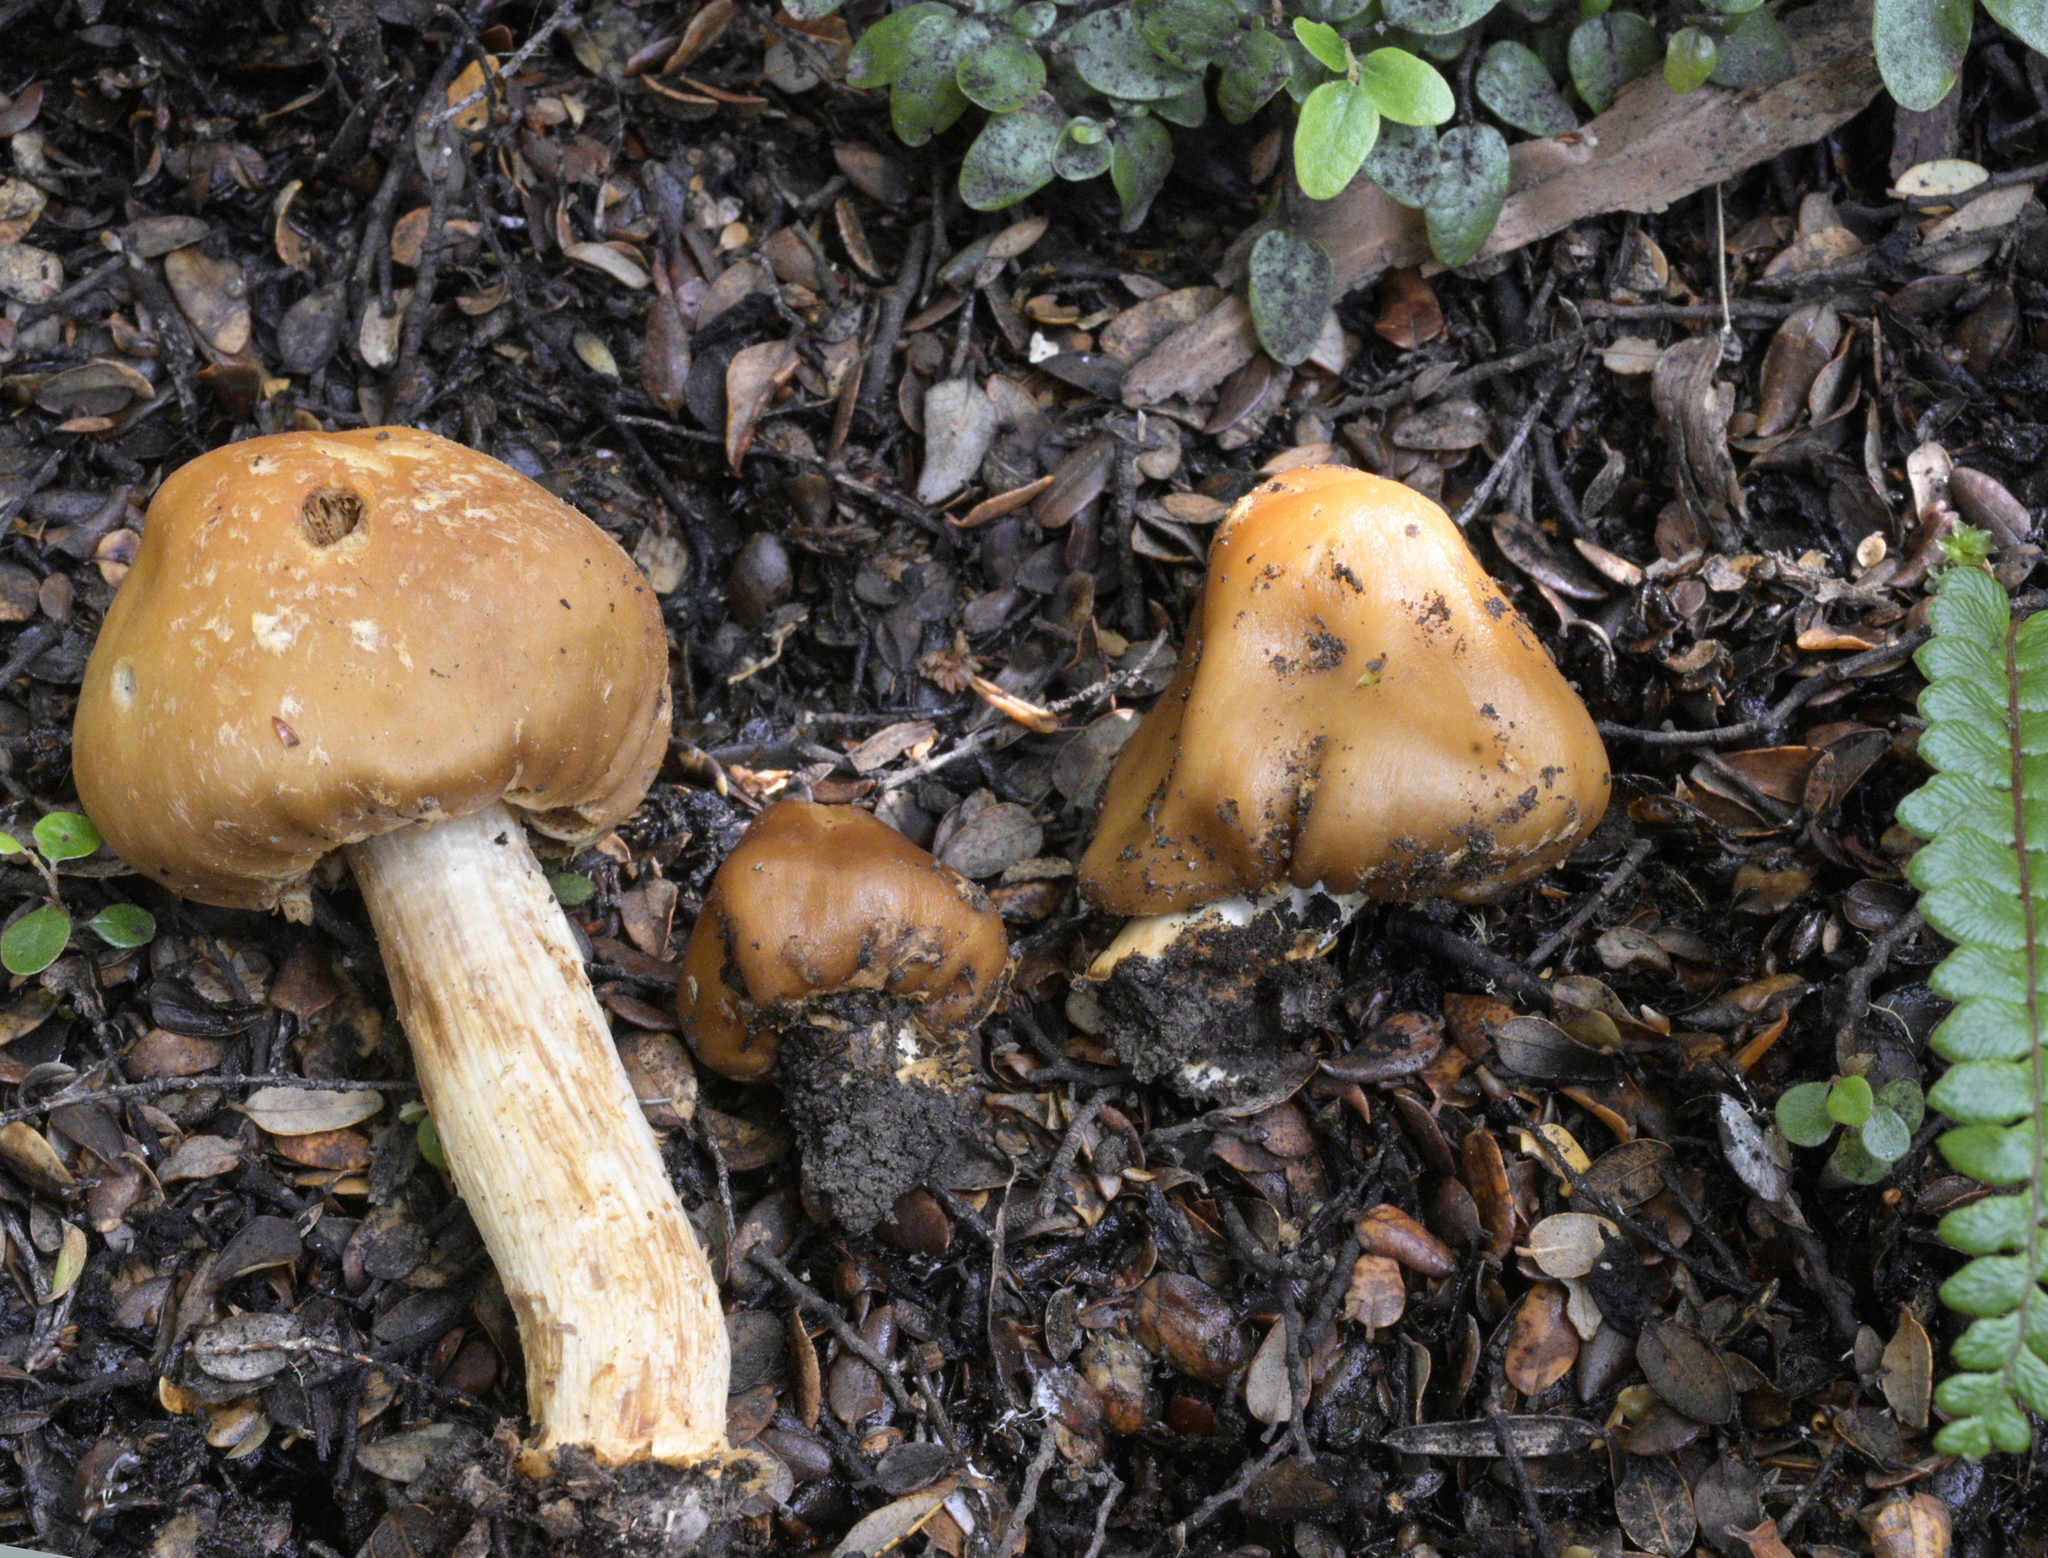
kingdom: Fungi
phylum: Basidiomycota
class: Agaricomycetes
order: Agaricales
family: Cortinariaceae
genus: Cortinarius
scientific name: Cortinarius epiphaeus
